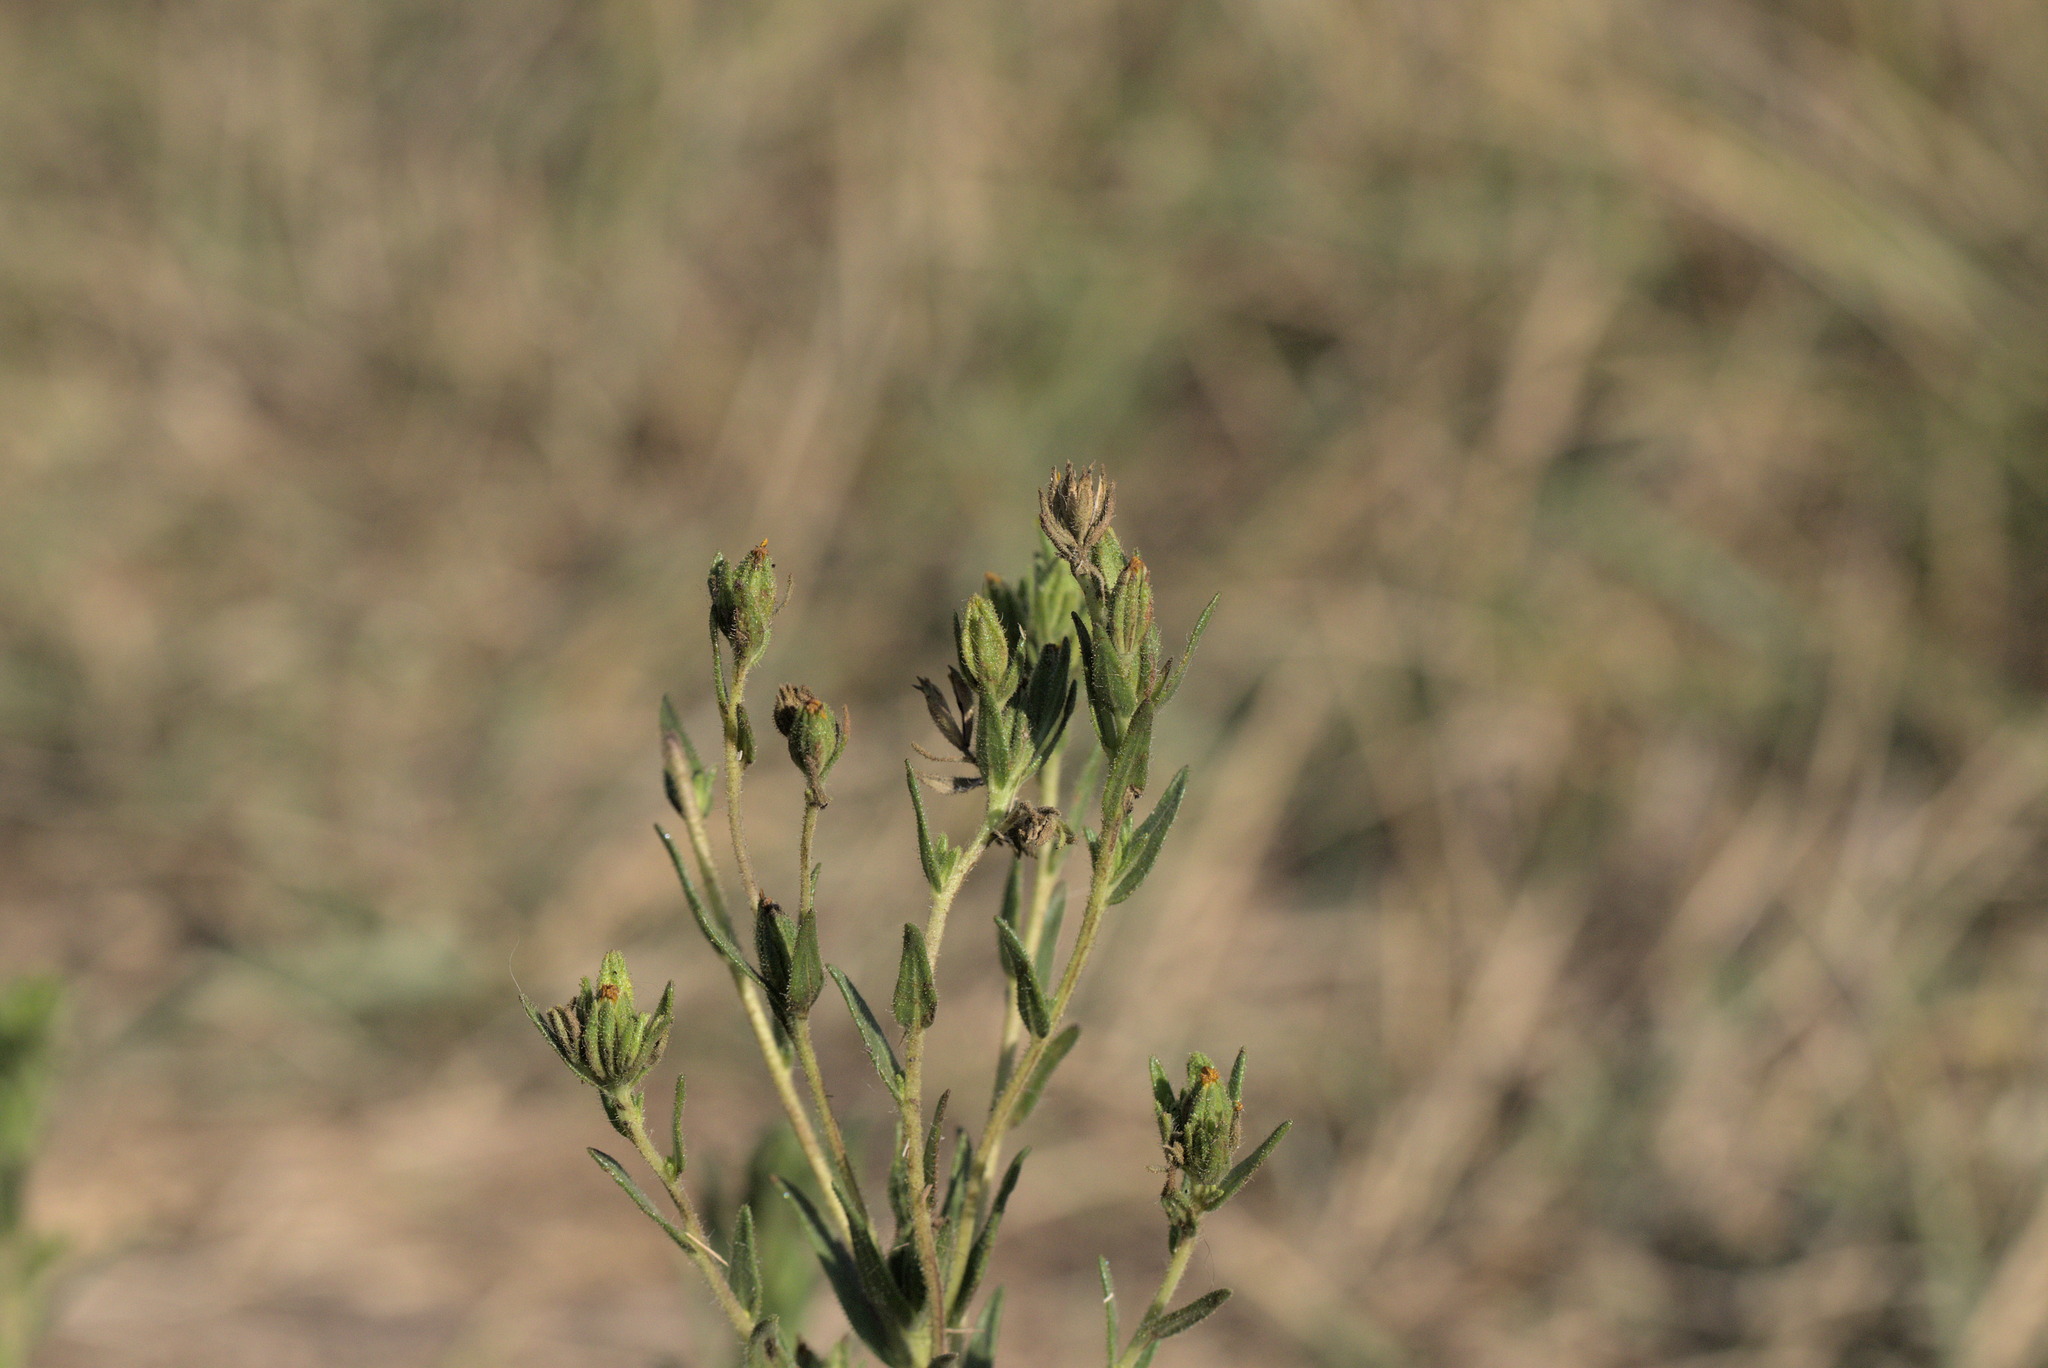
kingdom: Plantae
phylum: Tracheophyta
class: Magnoliopsida
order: Asterales
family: Asteraceae
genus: Madia
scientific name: Madia glomerata
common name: Mountain tarweed
